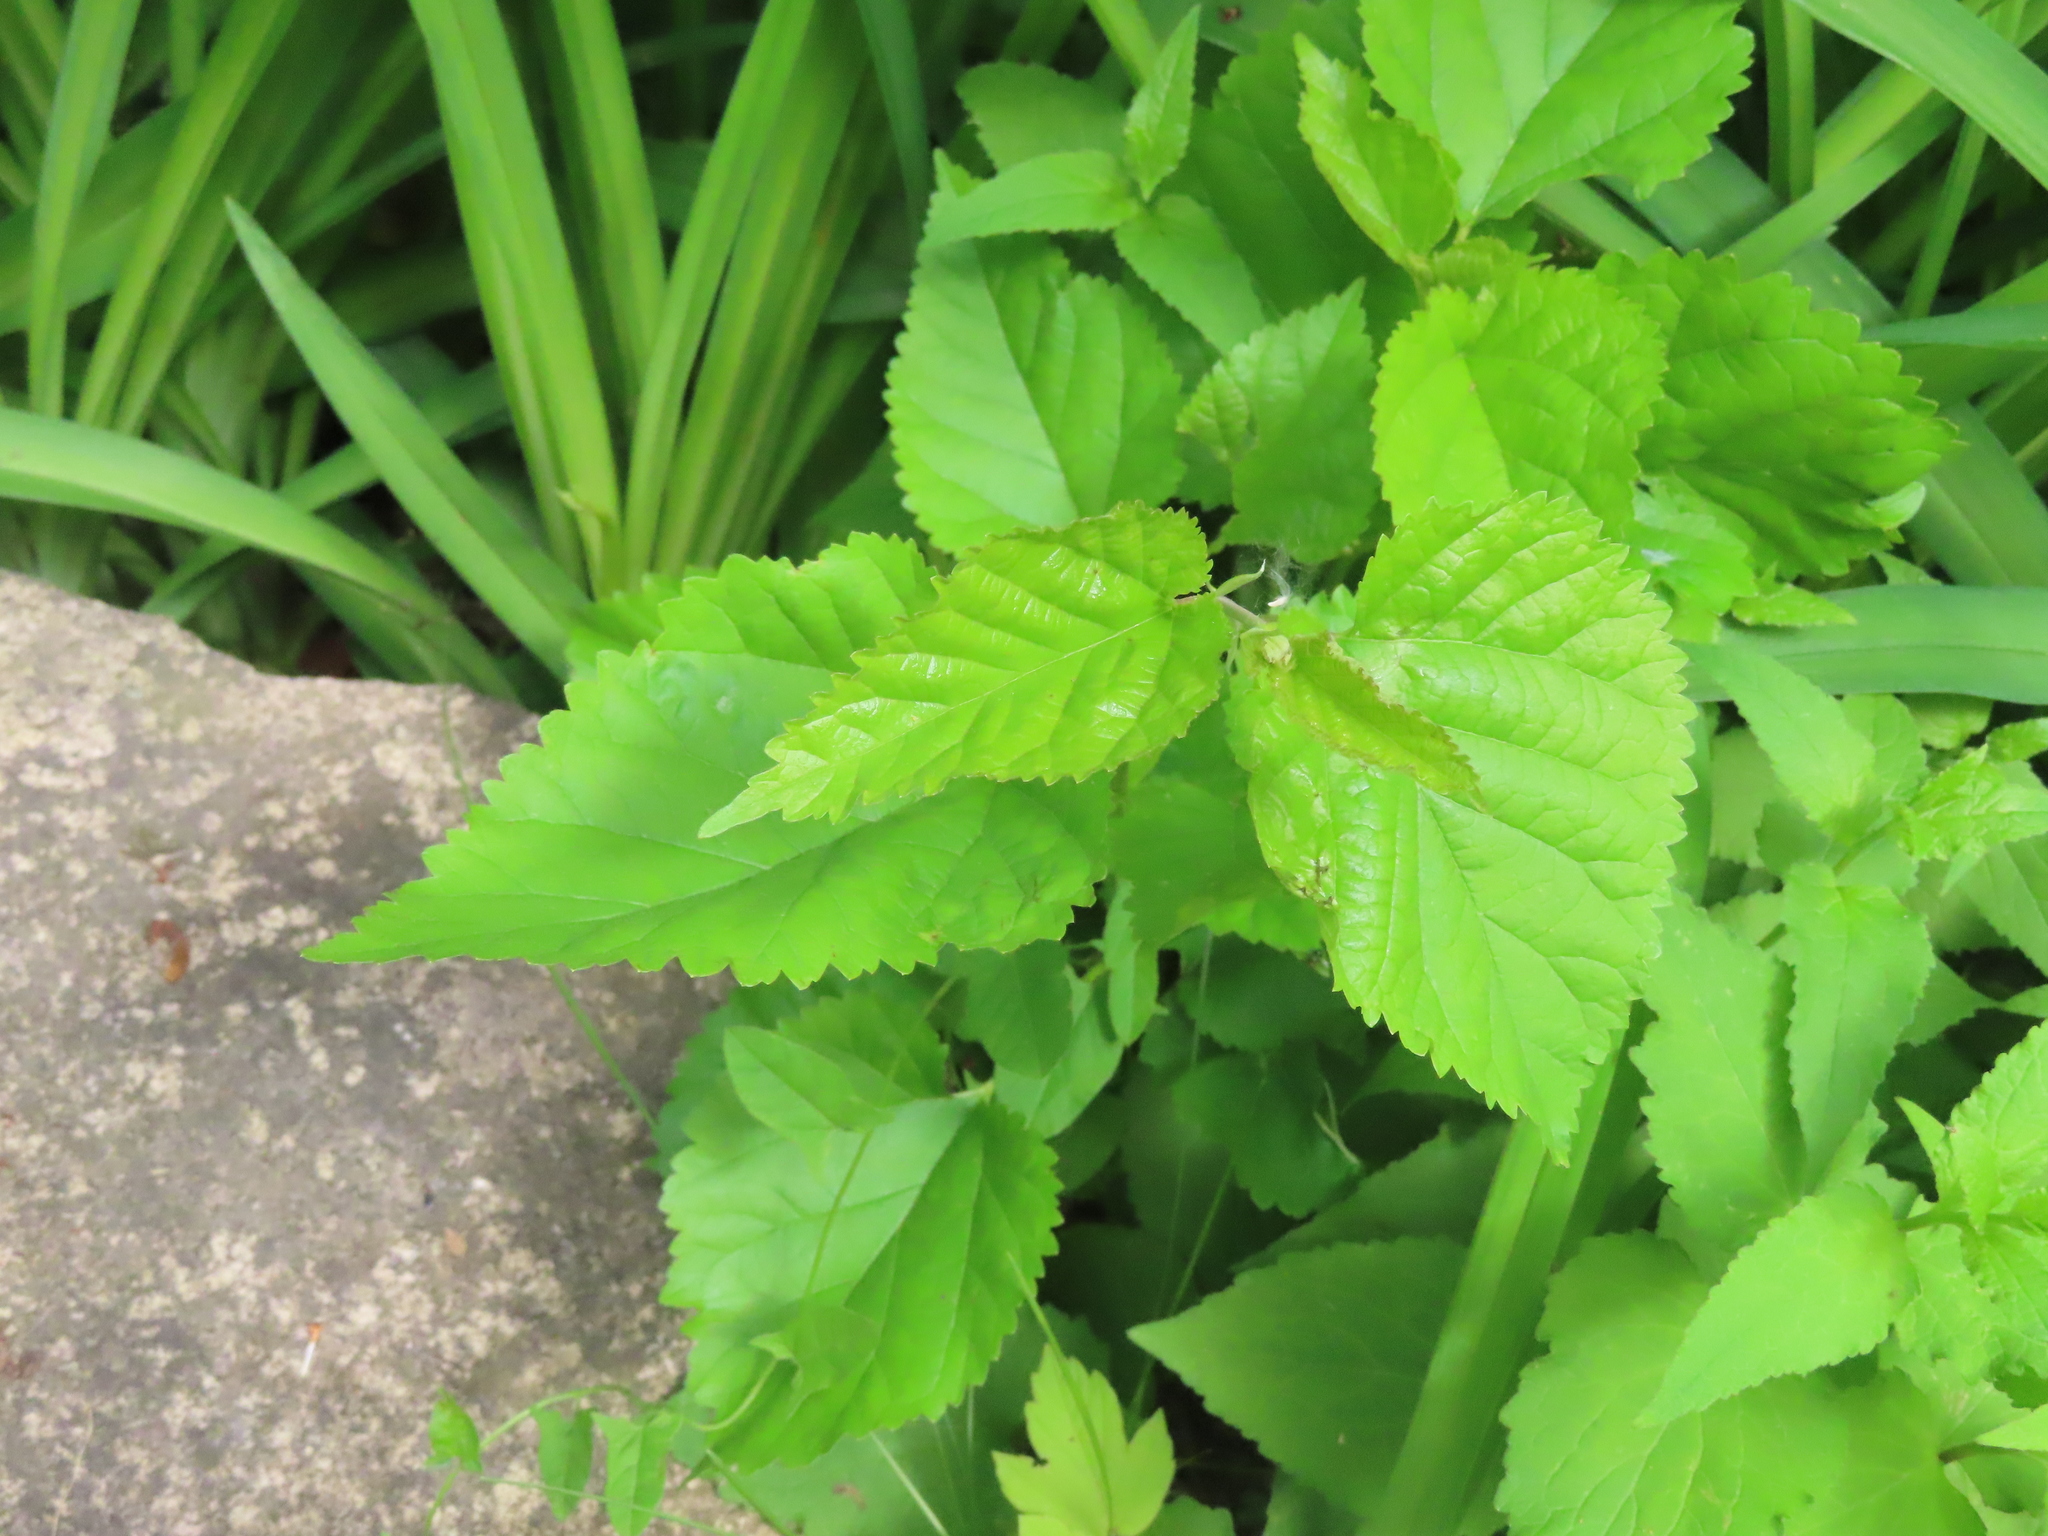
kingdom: Plantae
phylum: Tracheophyta
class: Magnoliopsida
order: Rosales
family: Moraceae
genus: Morus
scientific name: Morus alba
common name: White mulberry
